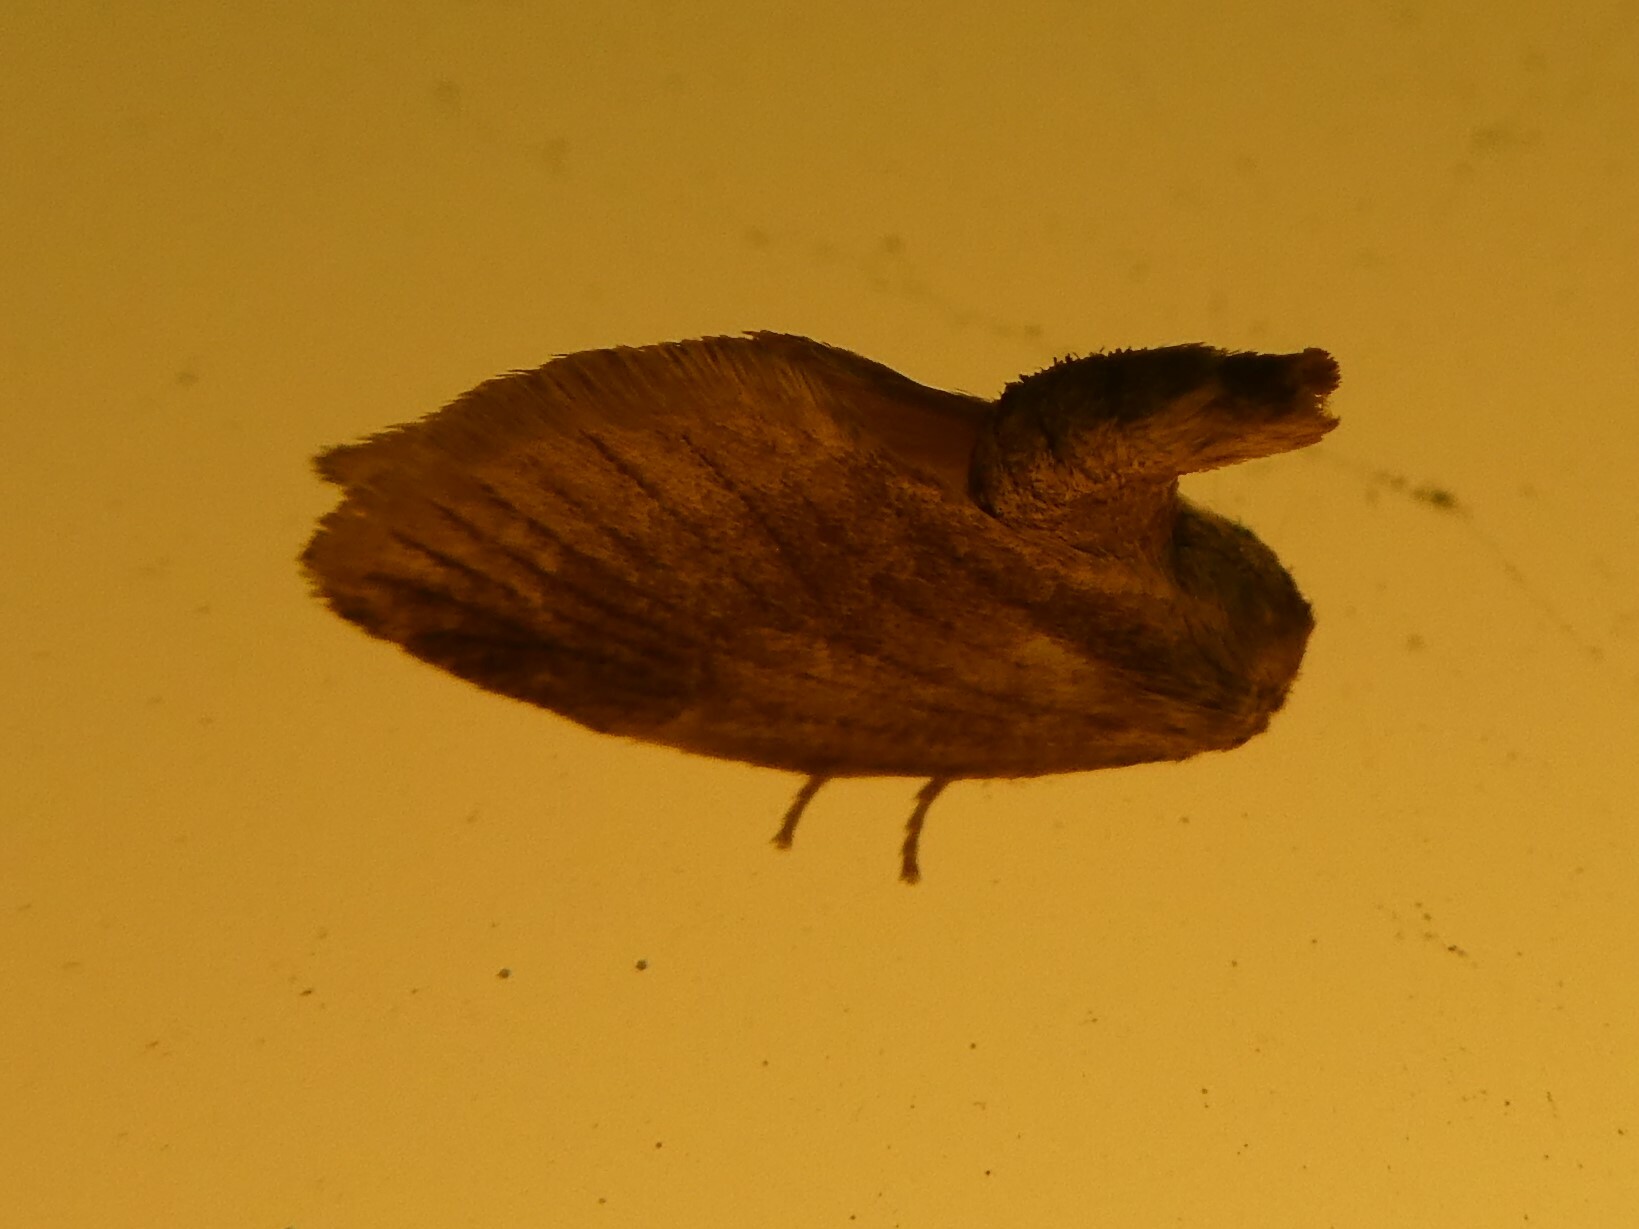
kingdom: Animalia
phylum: Arthropoda
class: Insecta
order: Lepidoptera
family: Limacodidae
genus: Tortricidia
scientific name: Tortricidia testacea
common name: Early button slug moth
